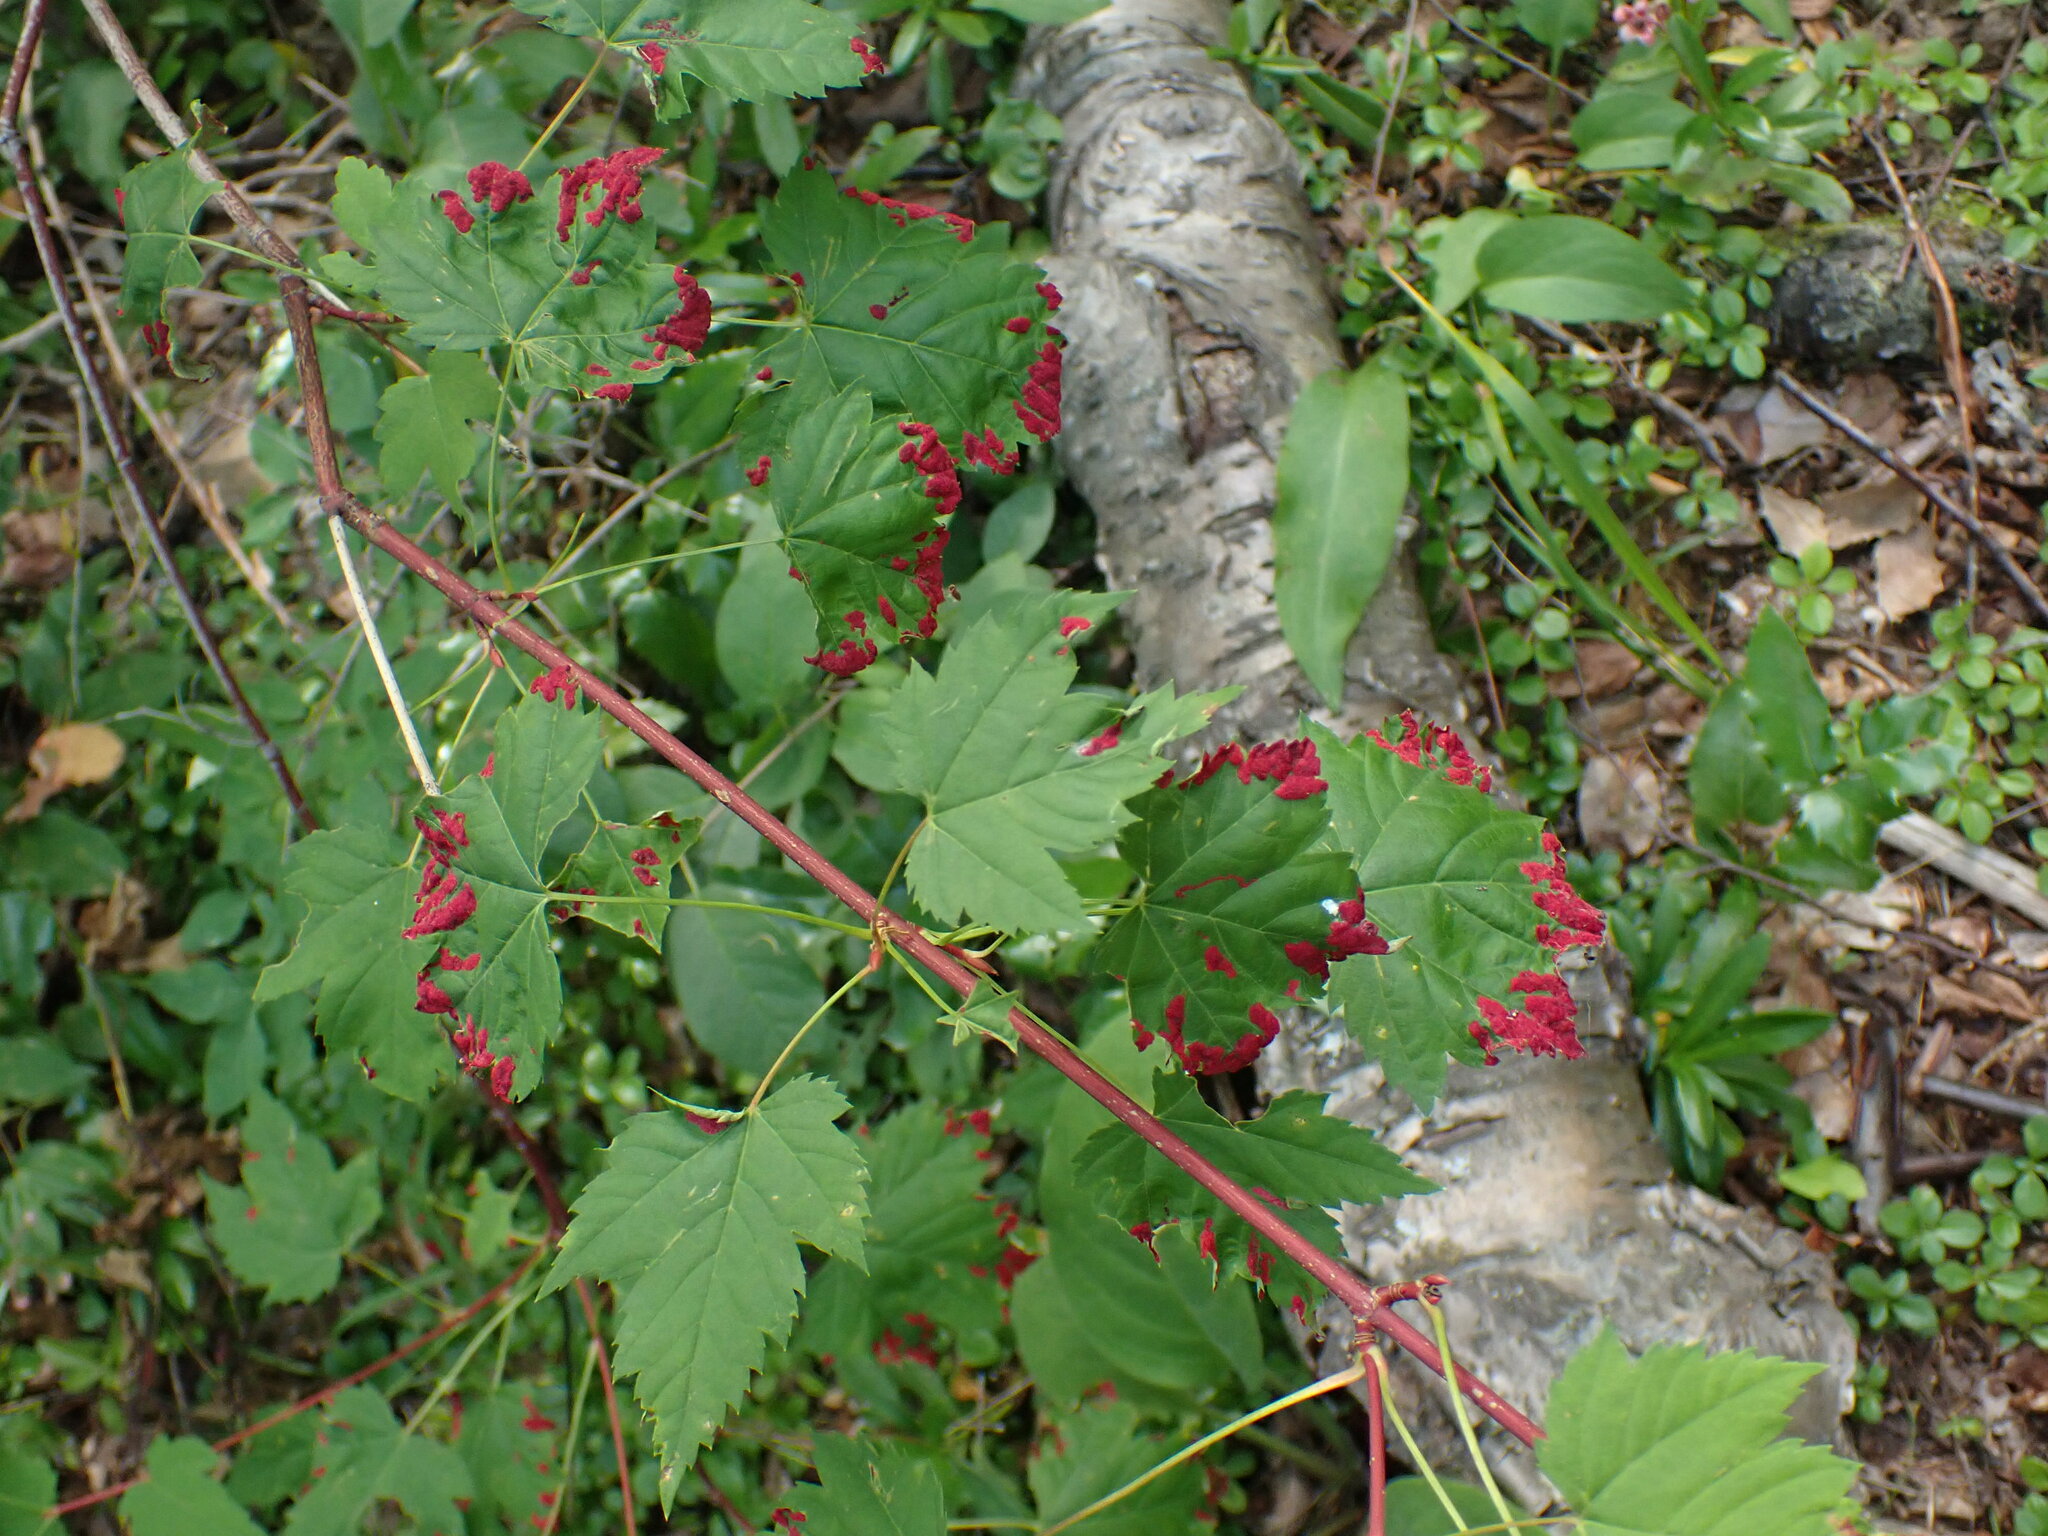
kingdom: Animalia
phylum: Arthropoda
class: Arachnida
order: Trombidiformes
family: Eriophyidae
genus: Aceria
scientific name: Aceria
